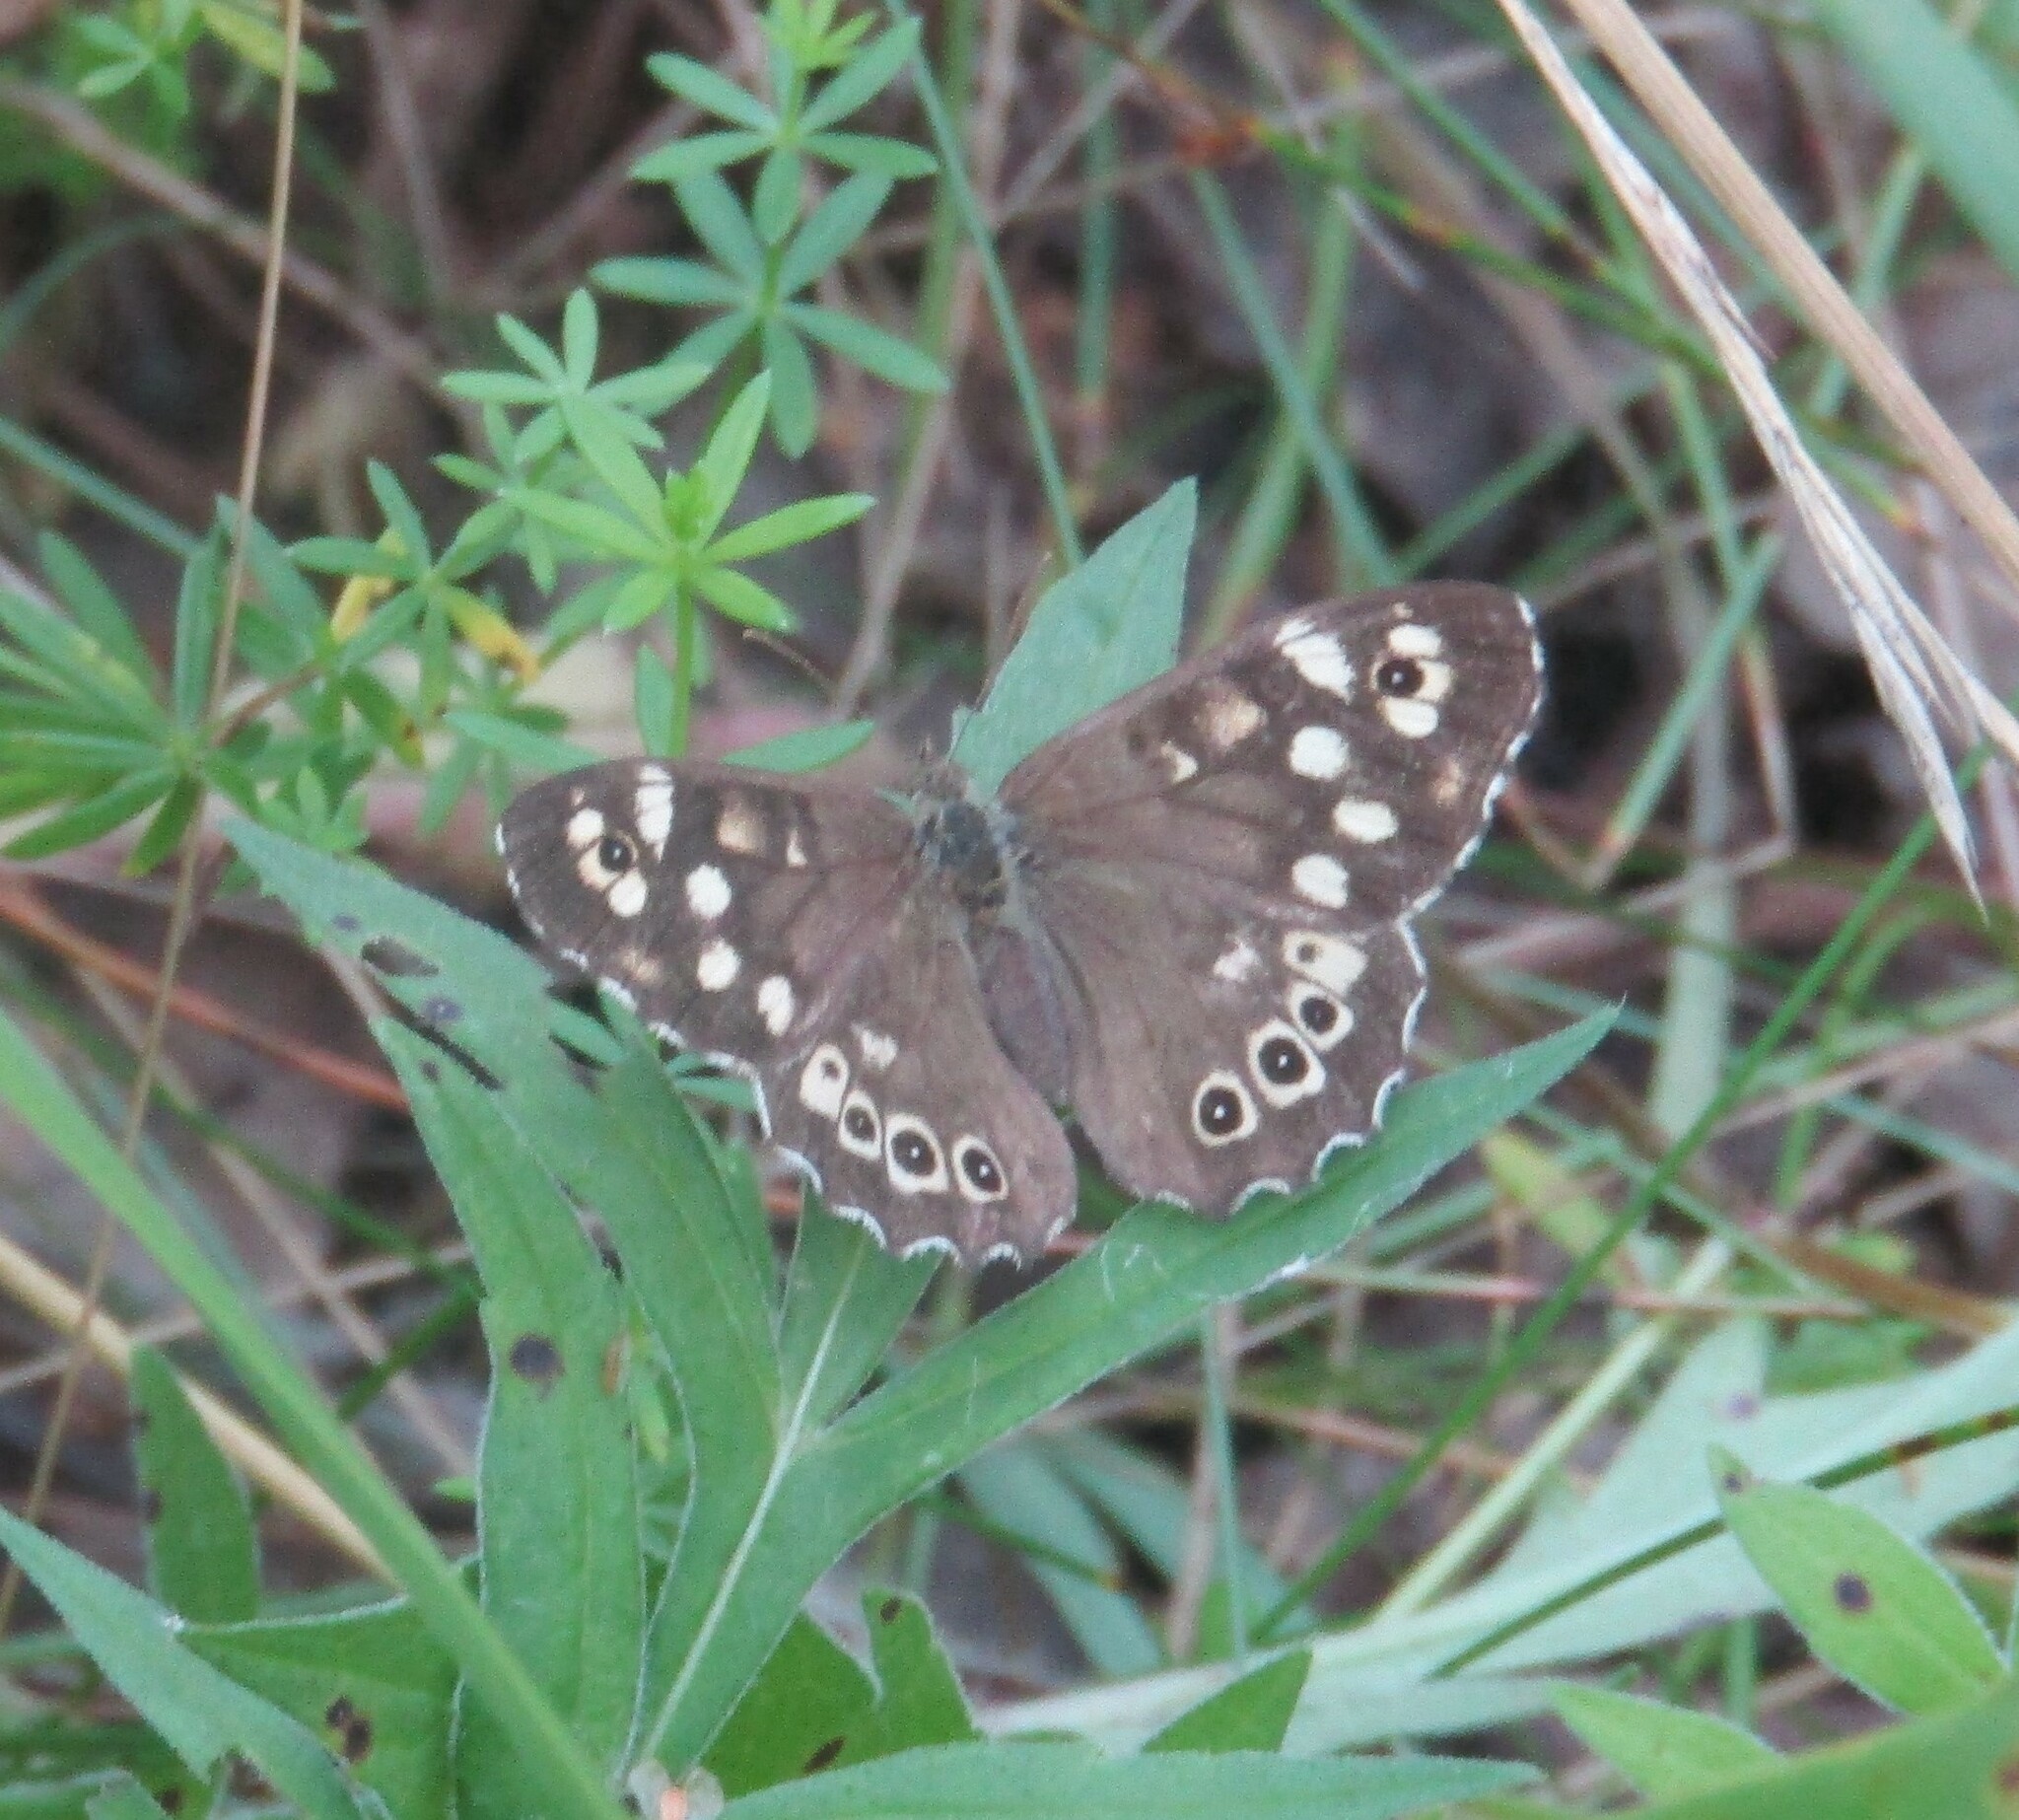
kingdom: Animalia
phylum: Arthropoda
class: Insecta
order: Lepidoptera
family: Nymphalidae
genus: Pararge
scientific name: Pararge aegeria
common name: Speckled wood
